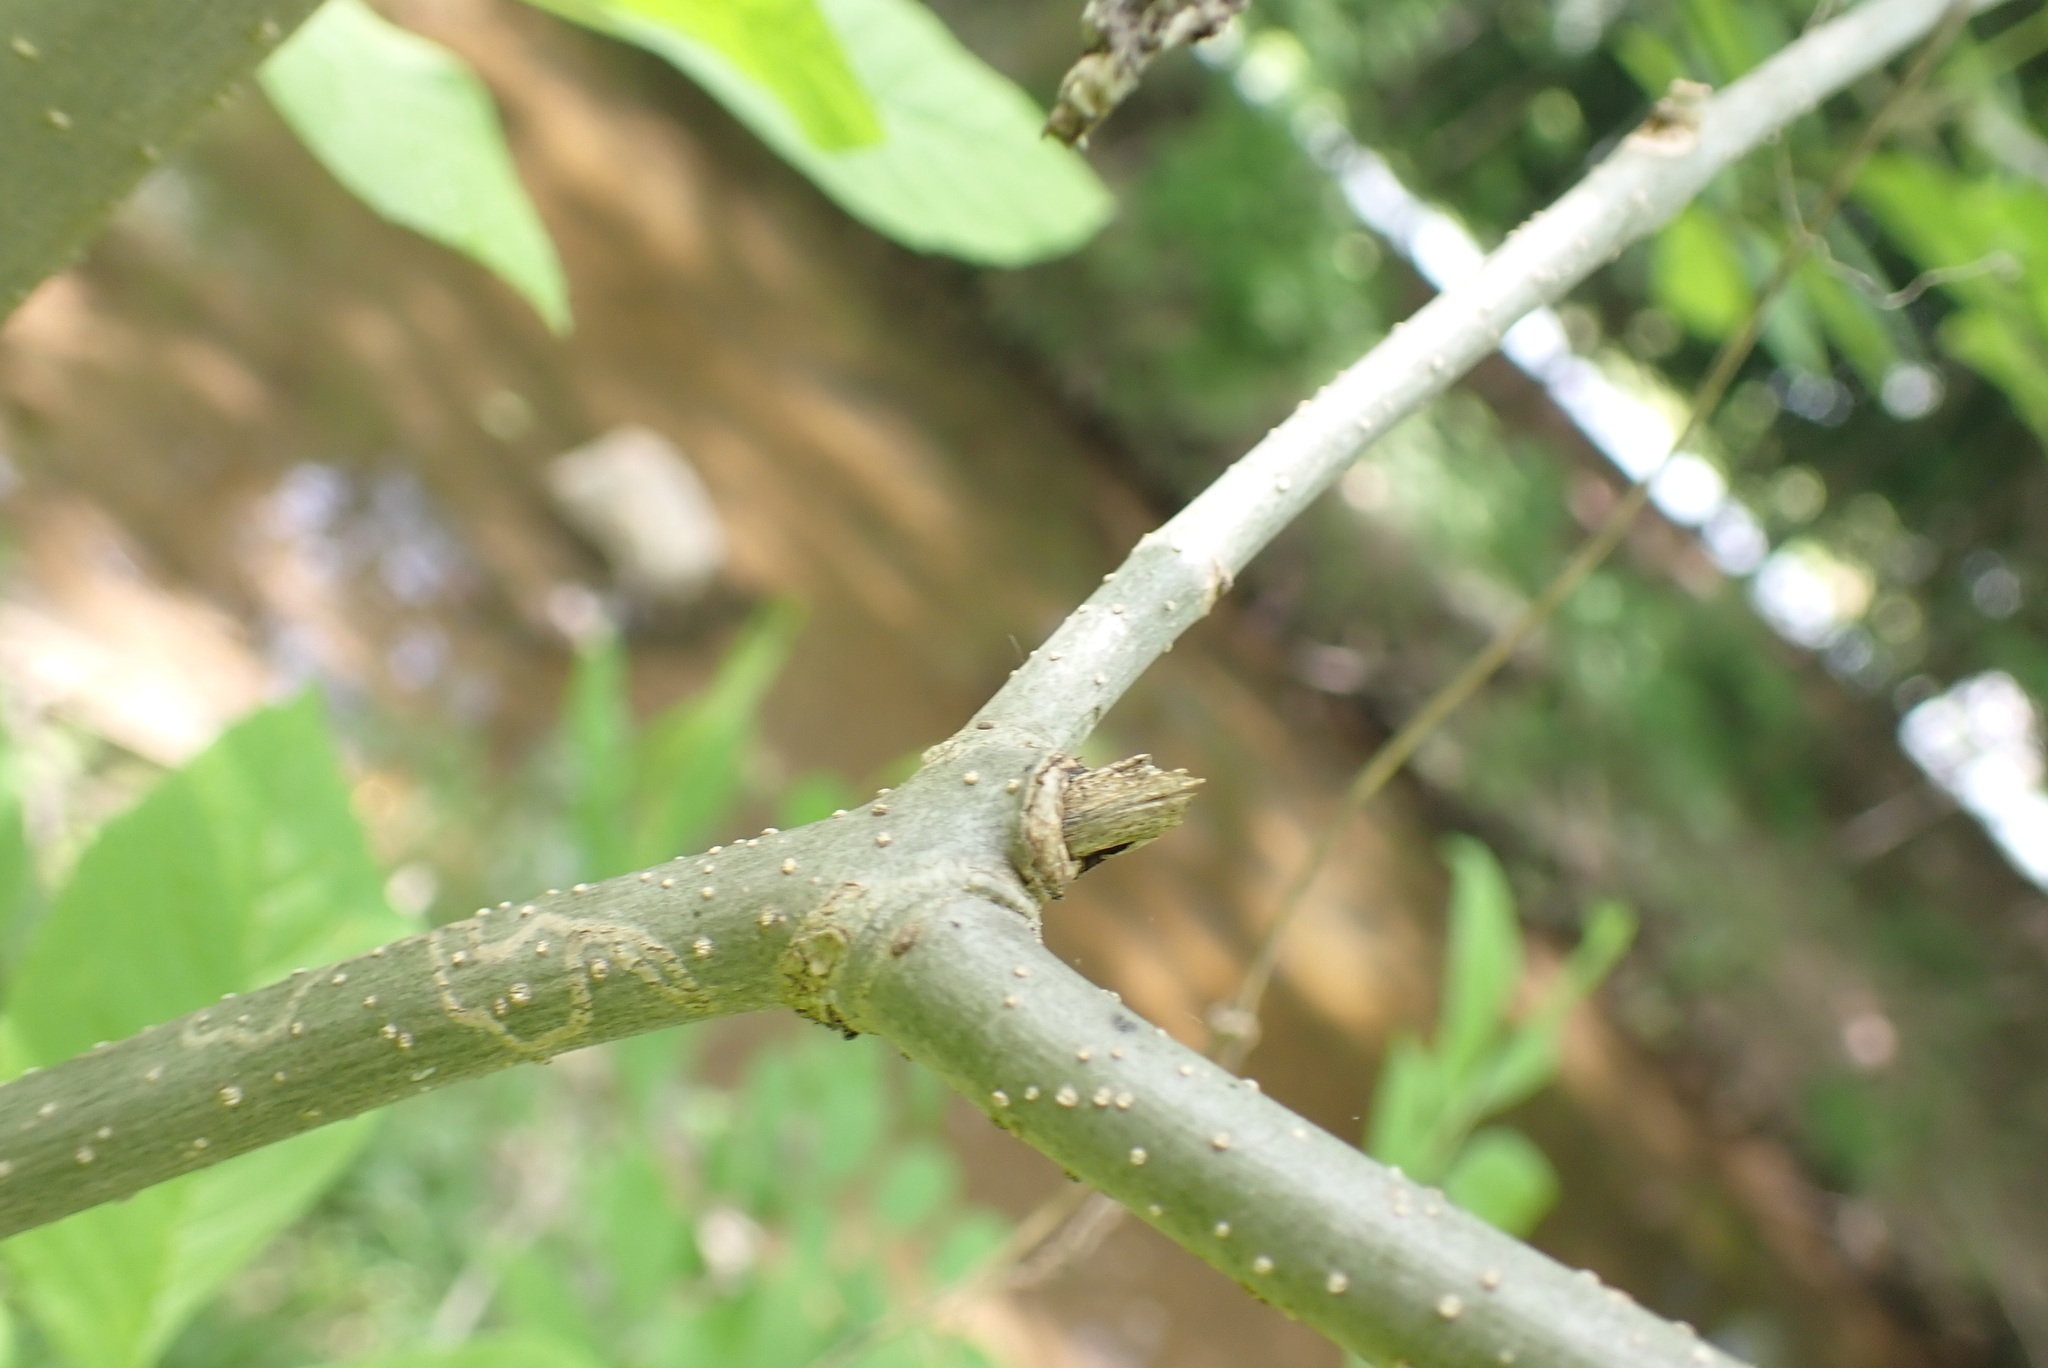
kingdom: Animalia
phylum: Arthropoda
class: Insecta
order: Lepidoptera
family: Gracillariidae
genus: Marmara
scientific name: Marmara fraxinicola
